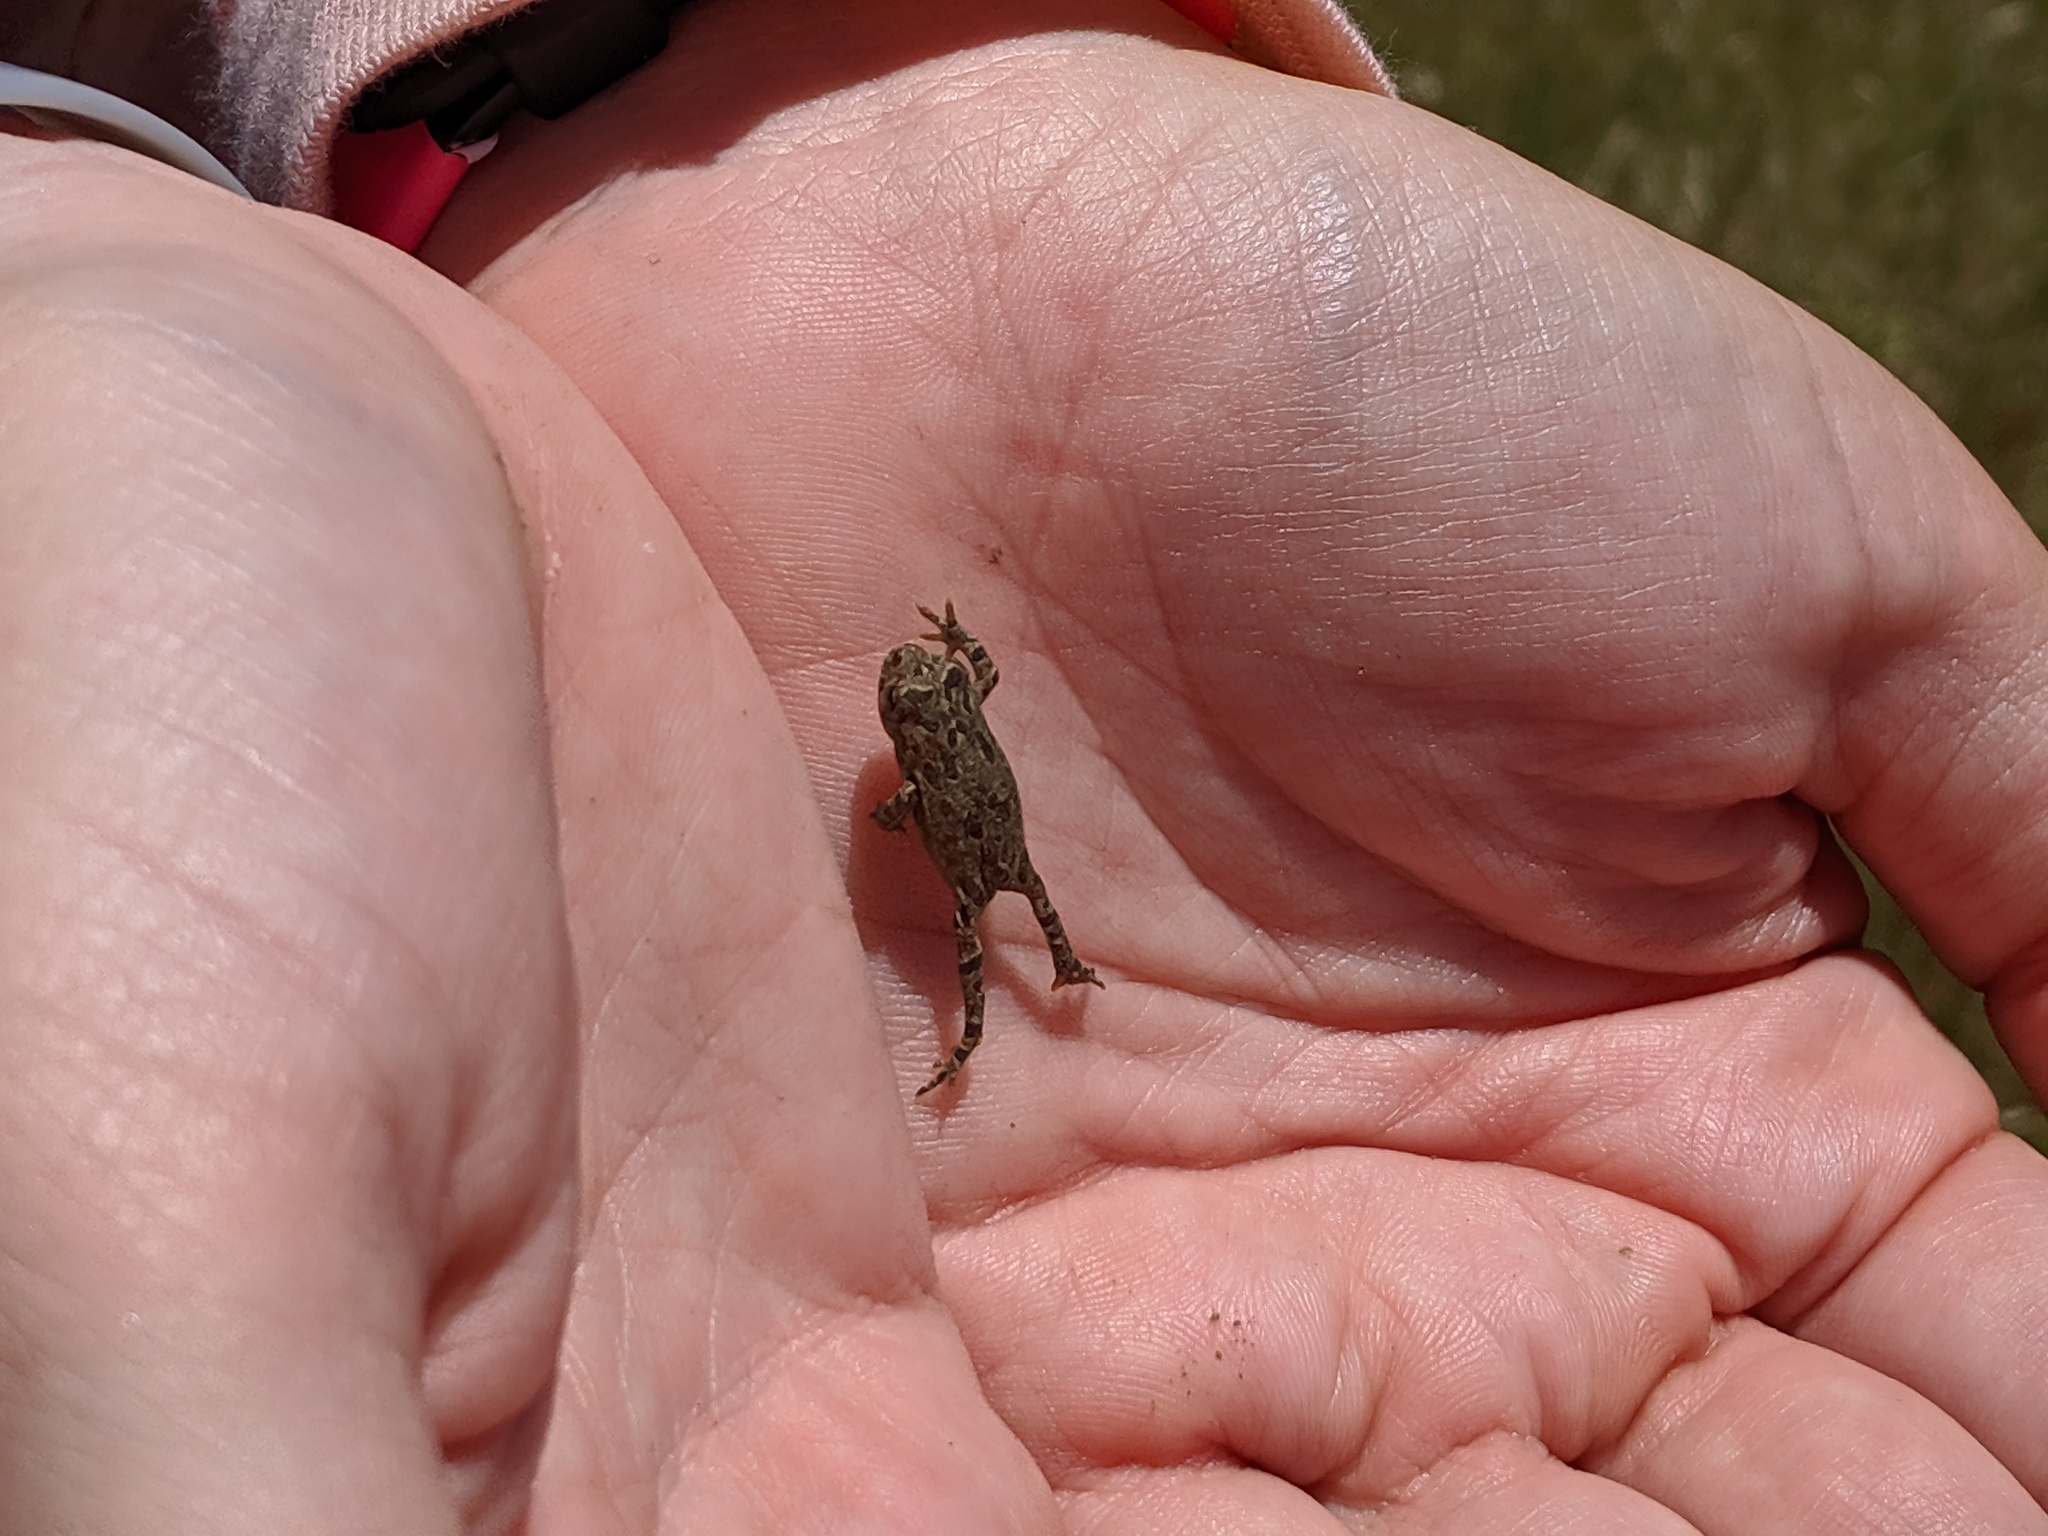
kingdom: Animalia
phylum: Chordata
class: Amphibia
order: Anura
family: Bufonidae
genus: Anaxyrus
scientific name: Anaxyrus boreas
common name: Western toad
